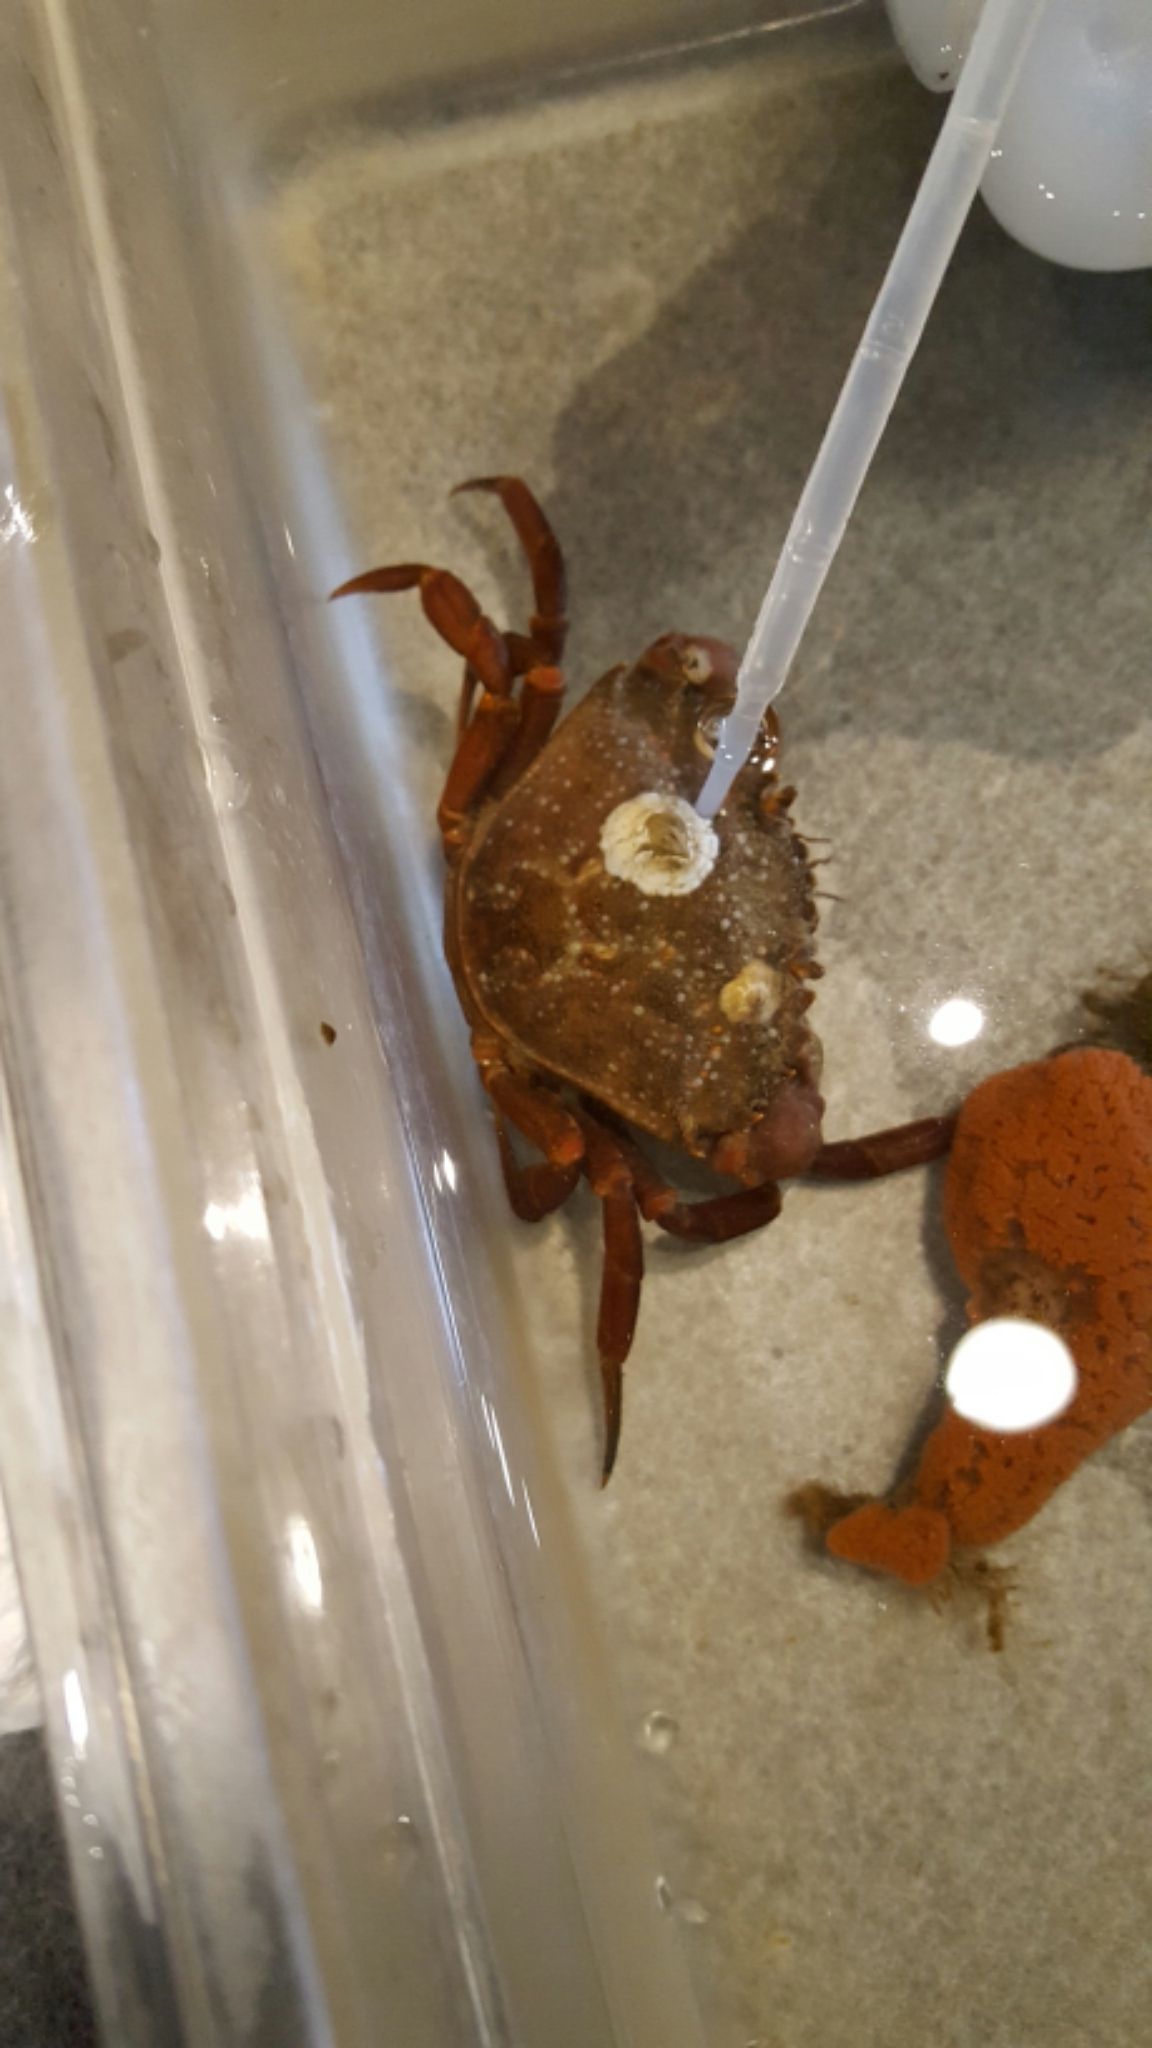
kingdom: Animalia
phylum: Arthropoda
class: Malacostraca
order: Decapoda
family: Carcinidae
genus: Carcinus
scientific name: Carcinus maenas
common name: European green crab
